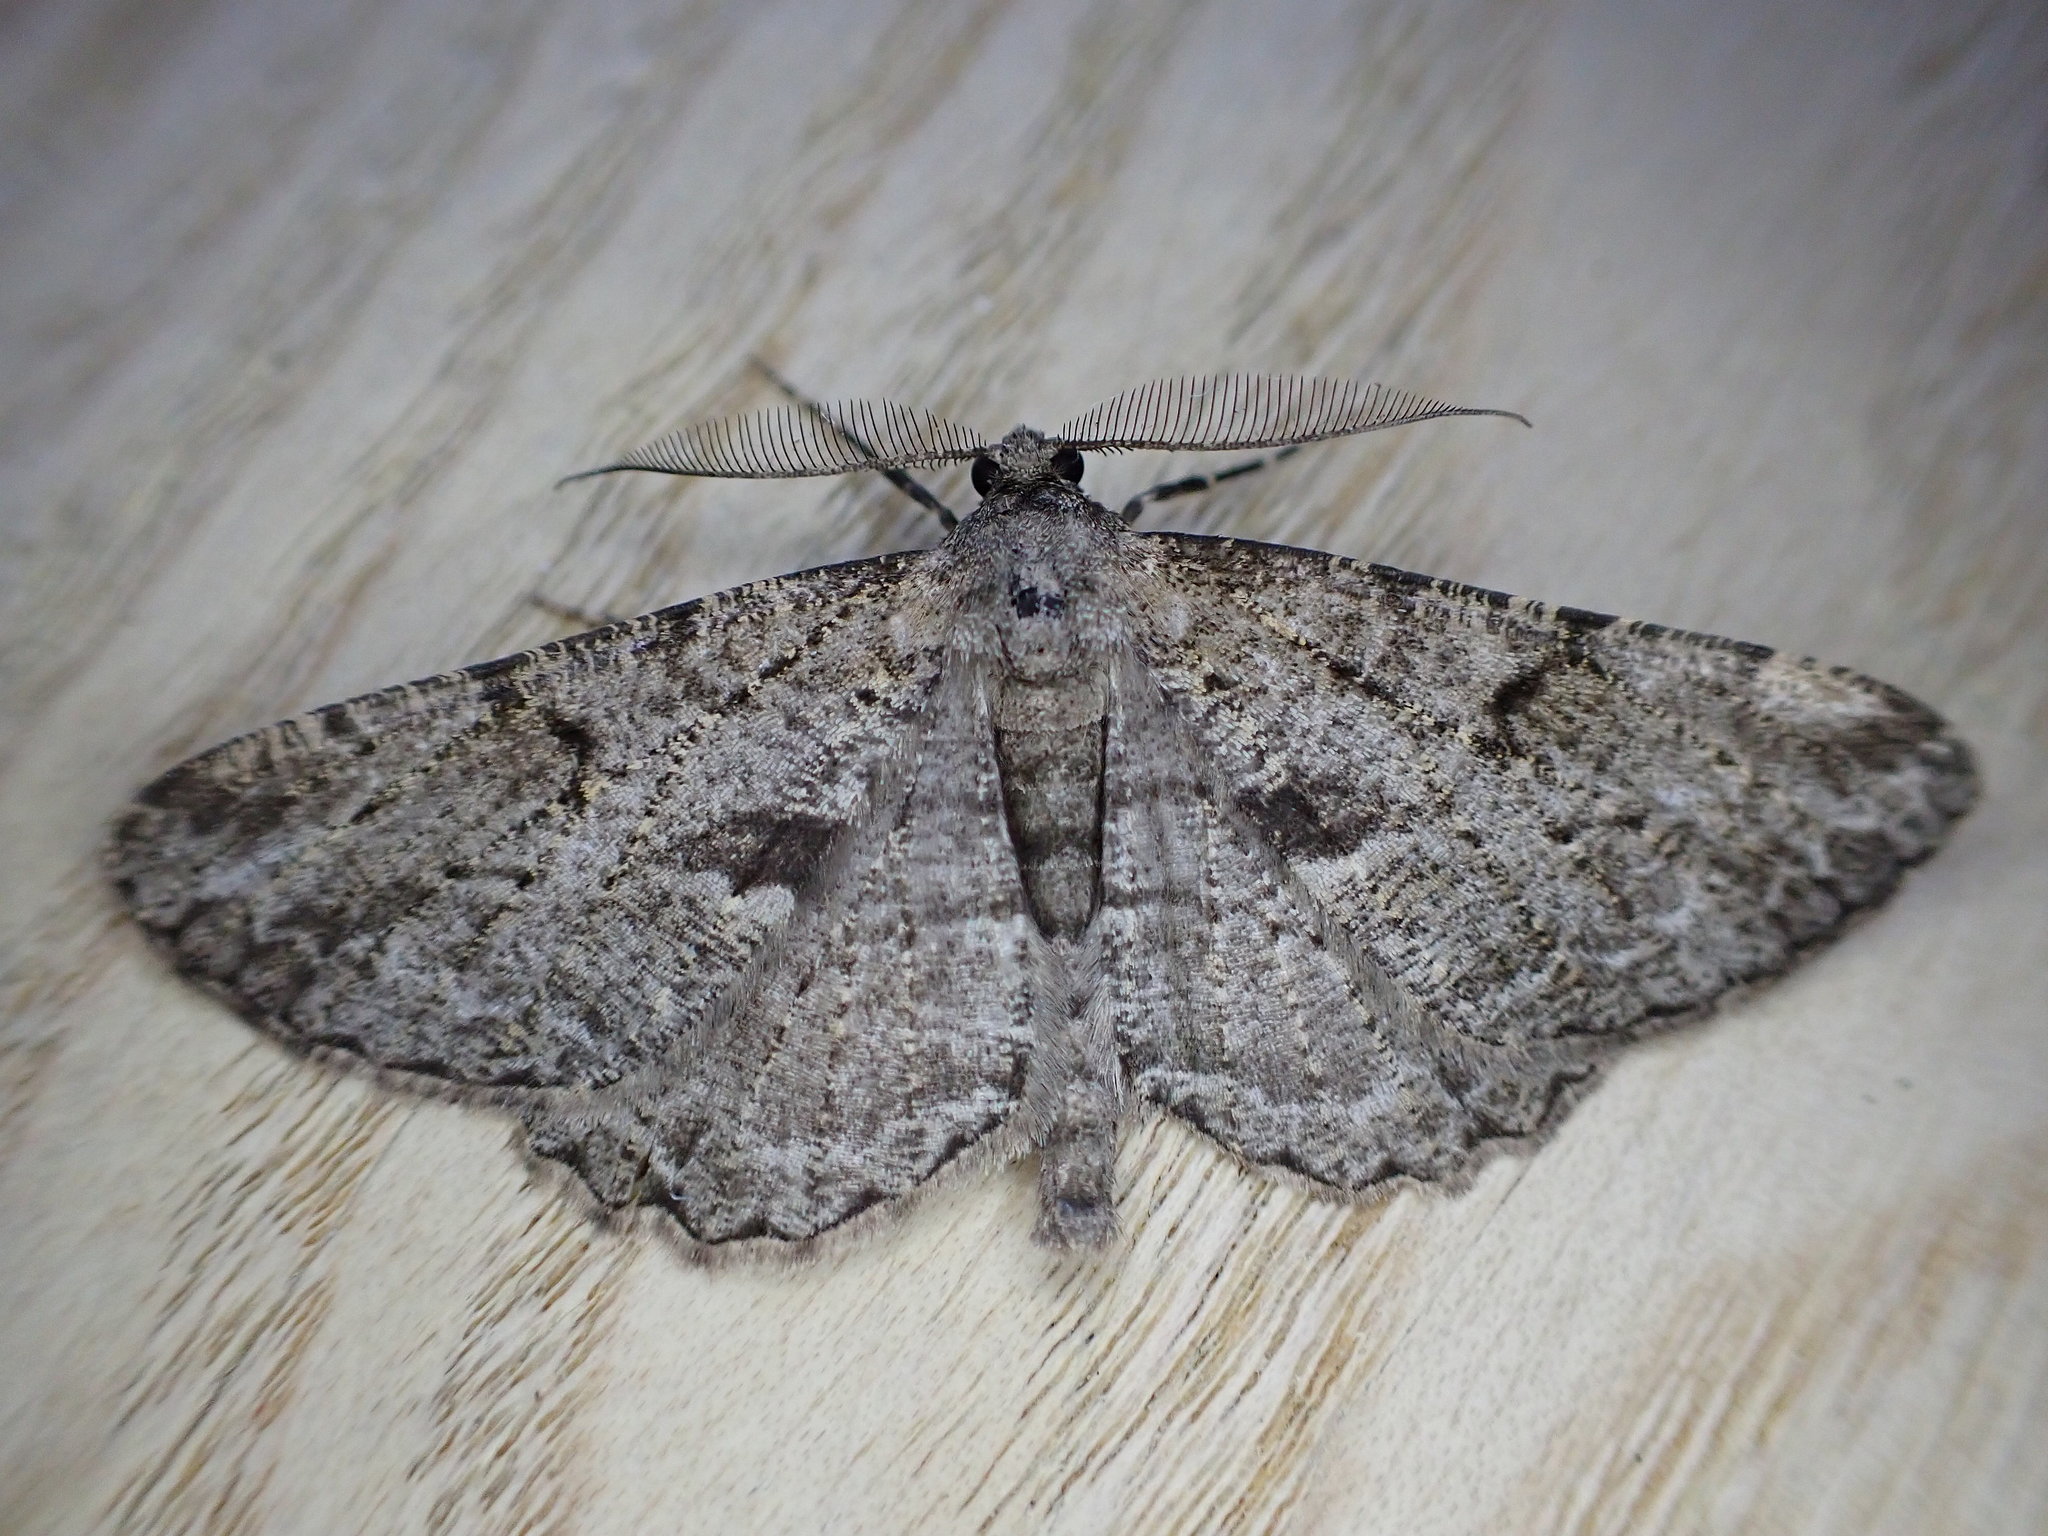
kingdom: Animalia
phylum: Arthropoda
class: Insecta
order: Lepidoptera
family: Geometridae
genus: Peribatodes
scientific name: Peribatodes rhomboidaria
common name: Willow beauty
